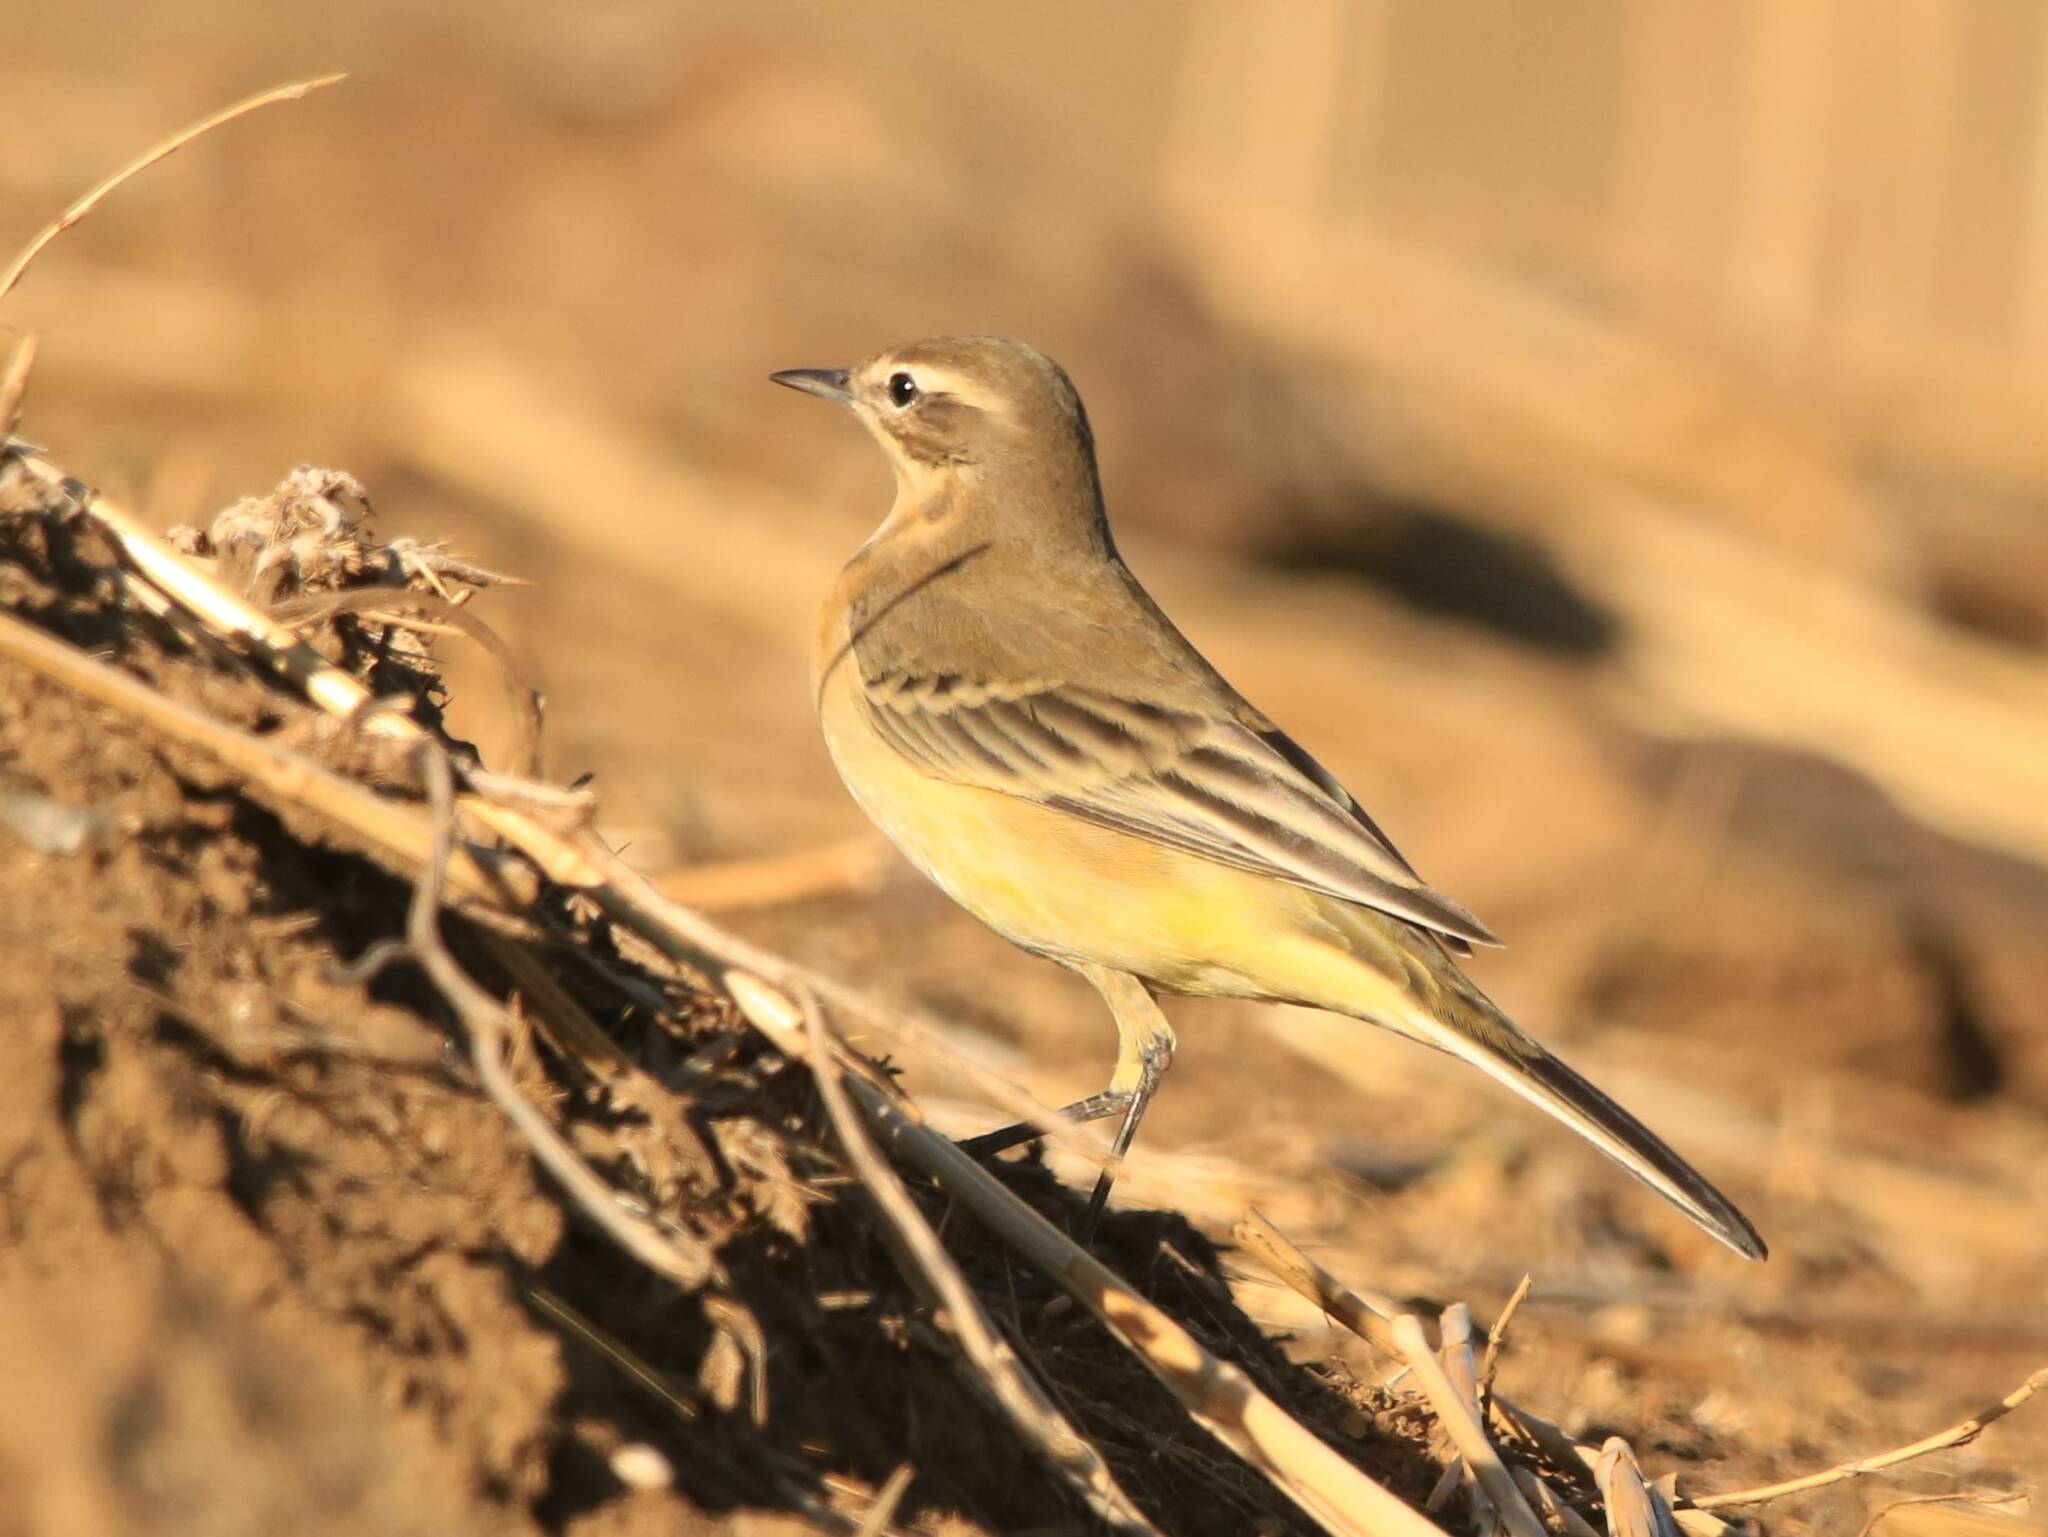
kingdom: Animalia
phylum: Chordata
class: Aves
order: Passeriformes
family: Motacillidae
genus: Motacilla
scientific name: Motacilla flava
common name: Western yellow wagtail
